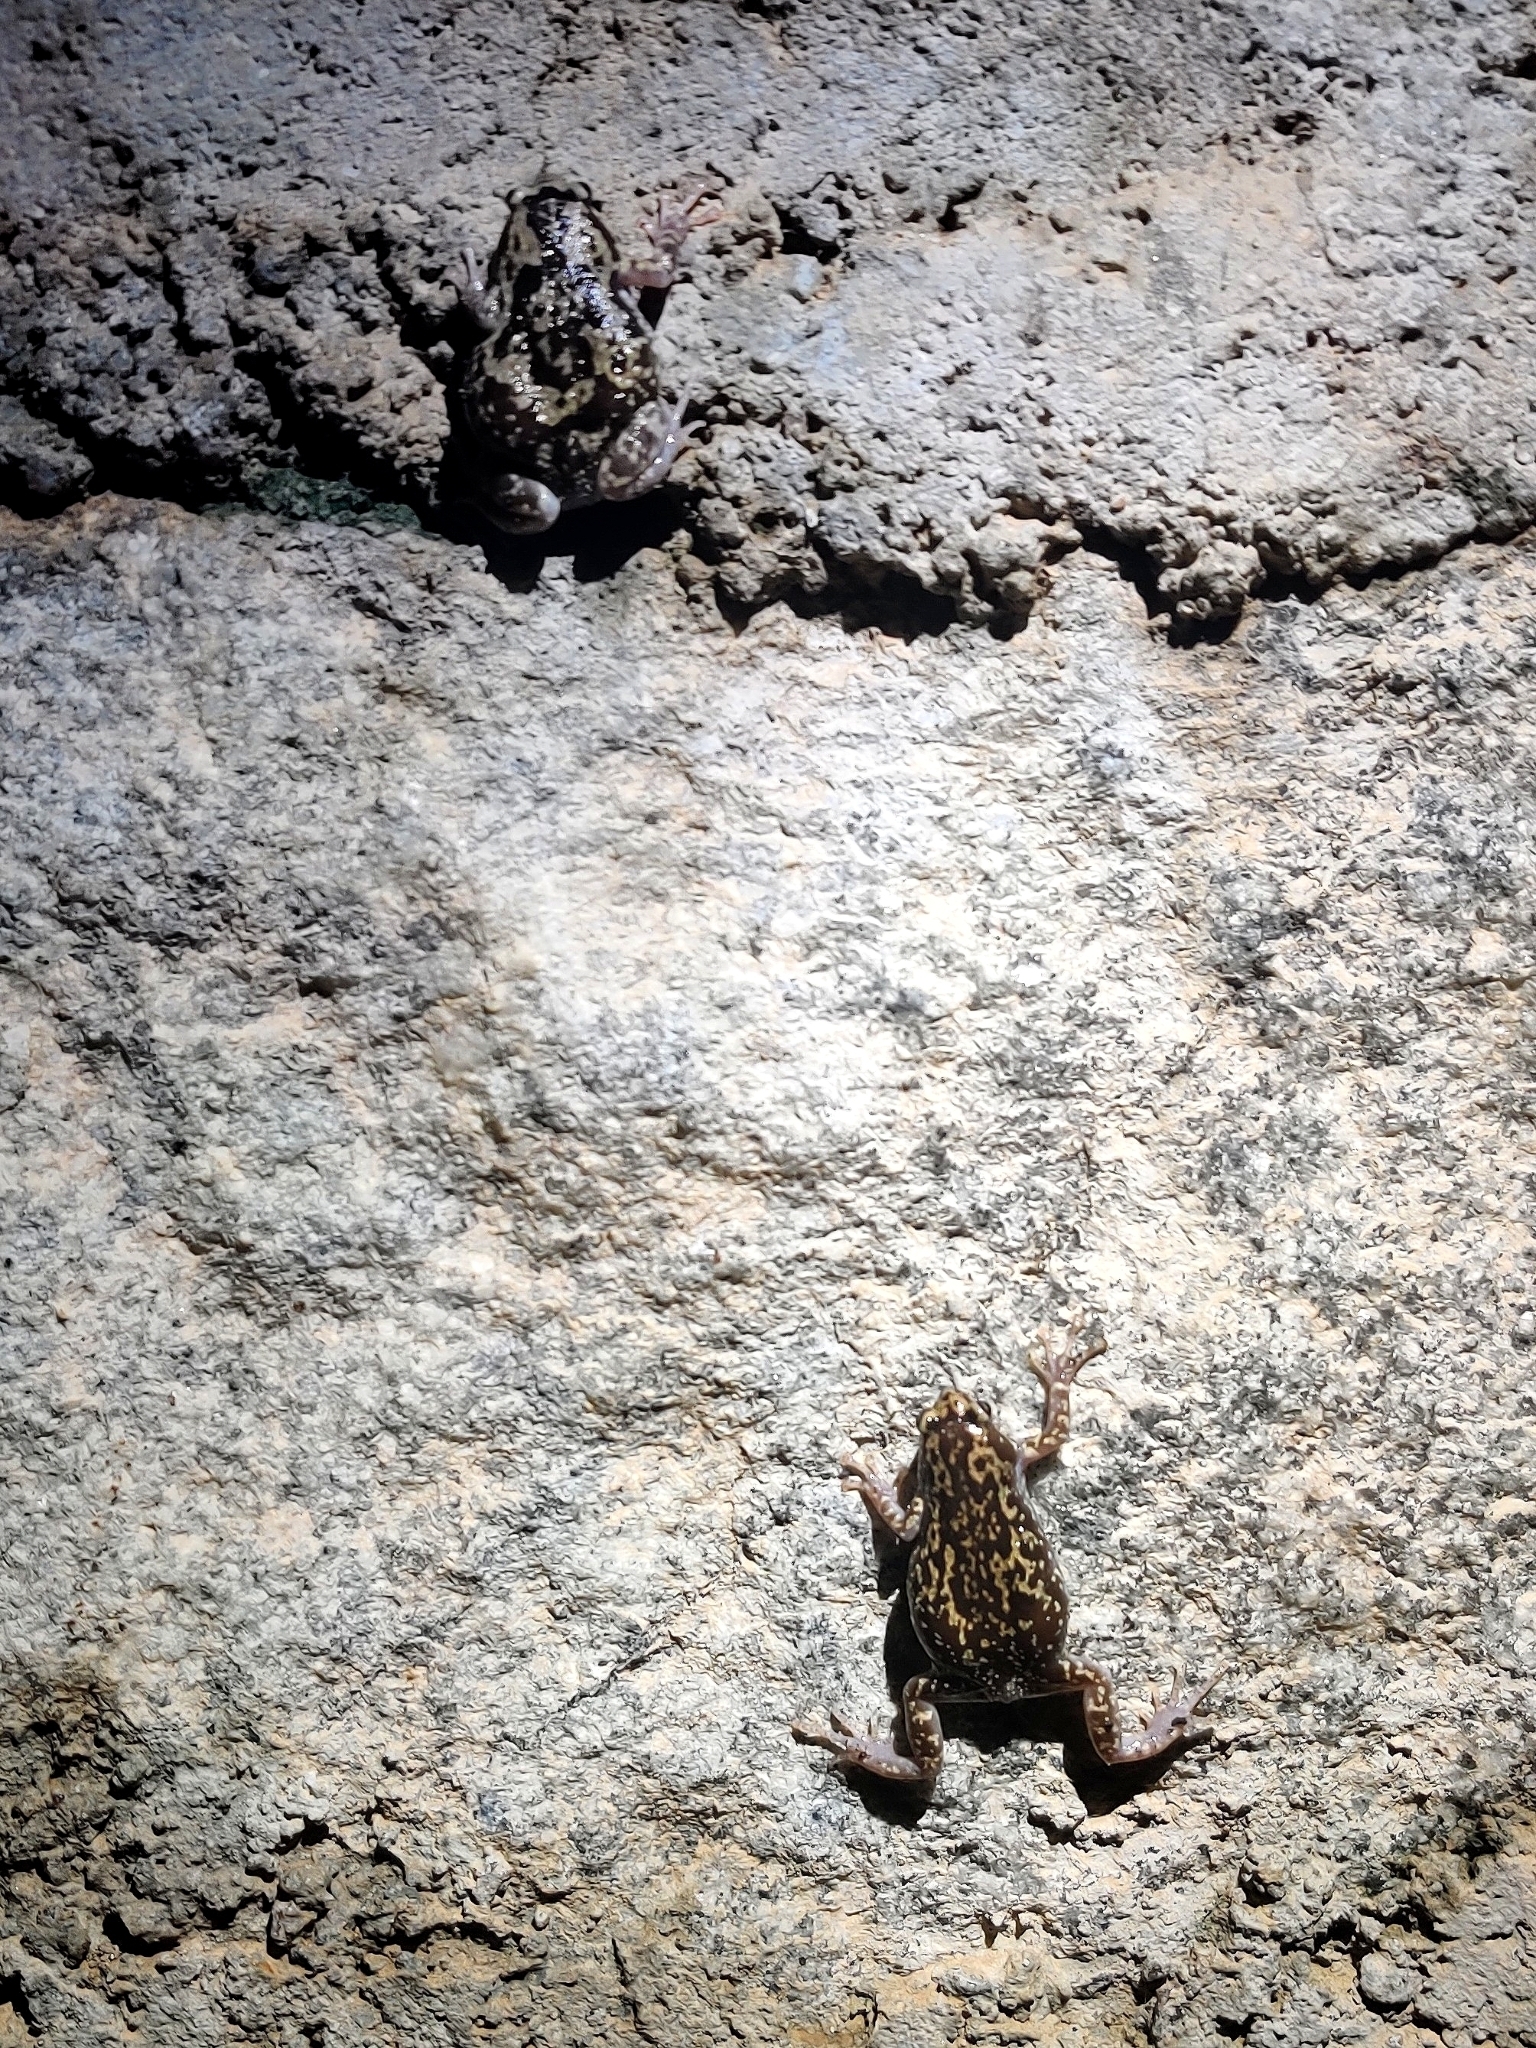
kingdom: Animalia
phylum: Chordata
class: Amphibia
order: Anura
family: Microhylidae
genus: Uperodon
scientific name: Uperodon variegatus
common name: Eluru dot frog
